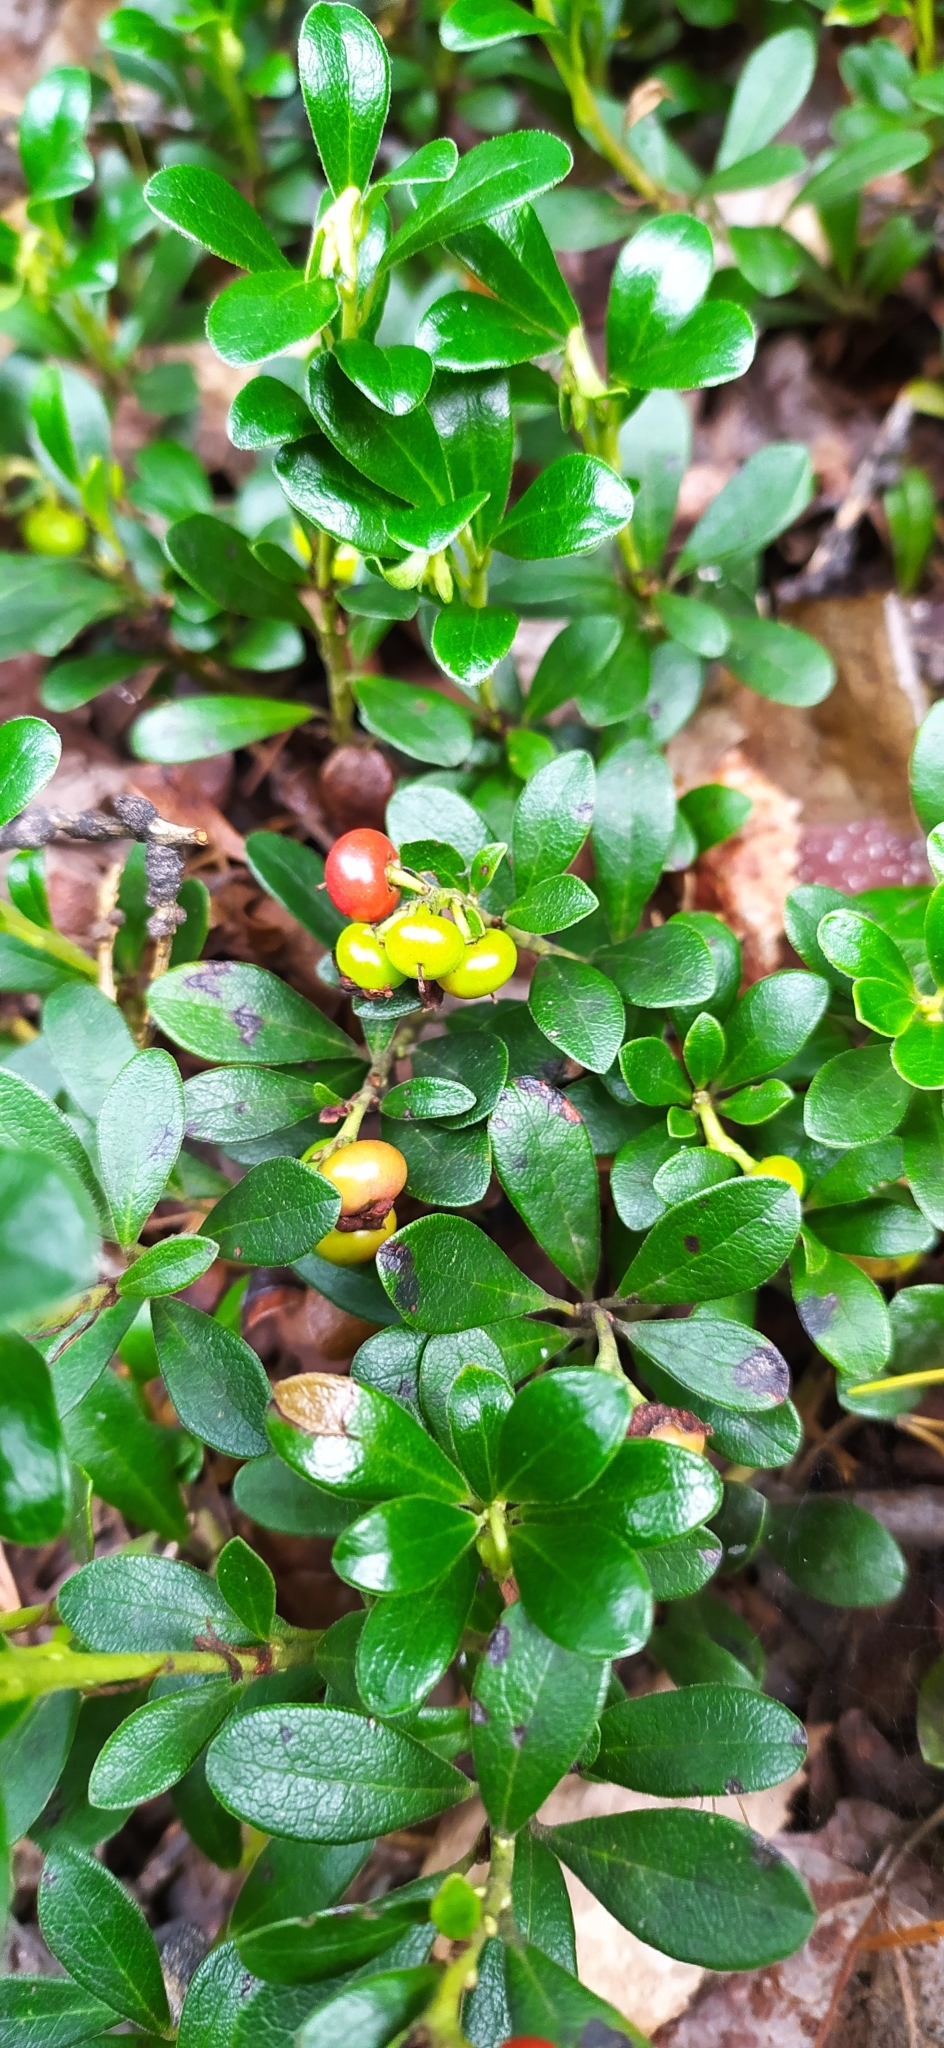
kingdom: Plantae
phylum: Tracheophyta
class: Magnoliopsida
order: Ericales
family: Ericaceae
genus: Arctostaphylos
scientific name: Arctostaphylos uva-ursi
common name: Bearberry
